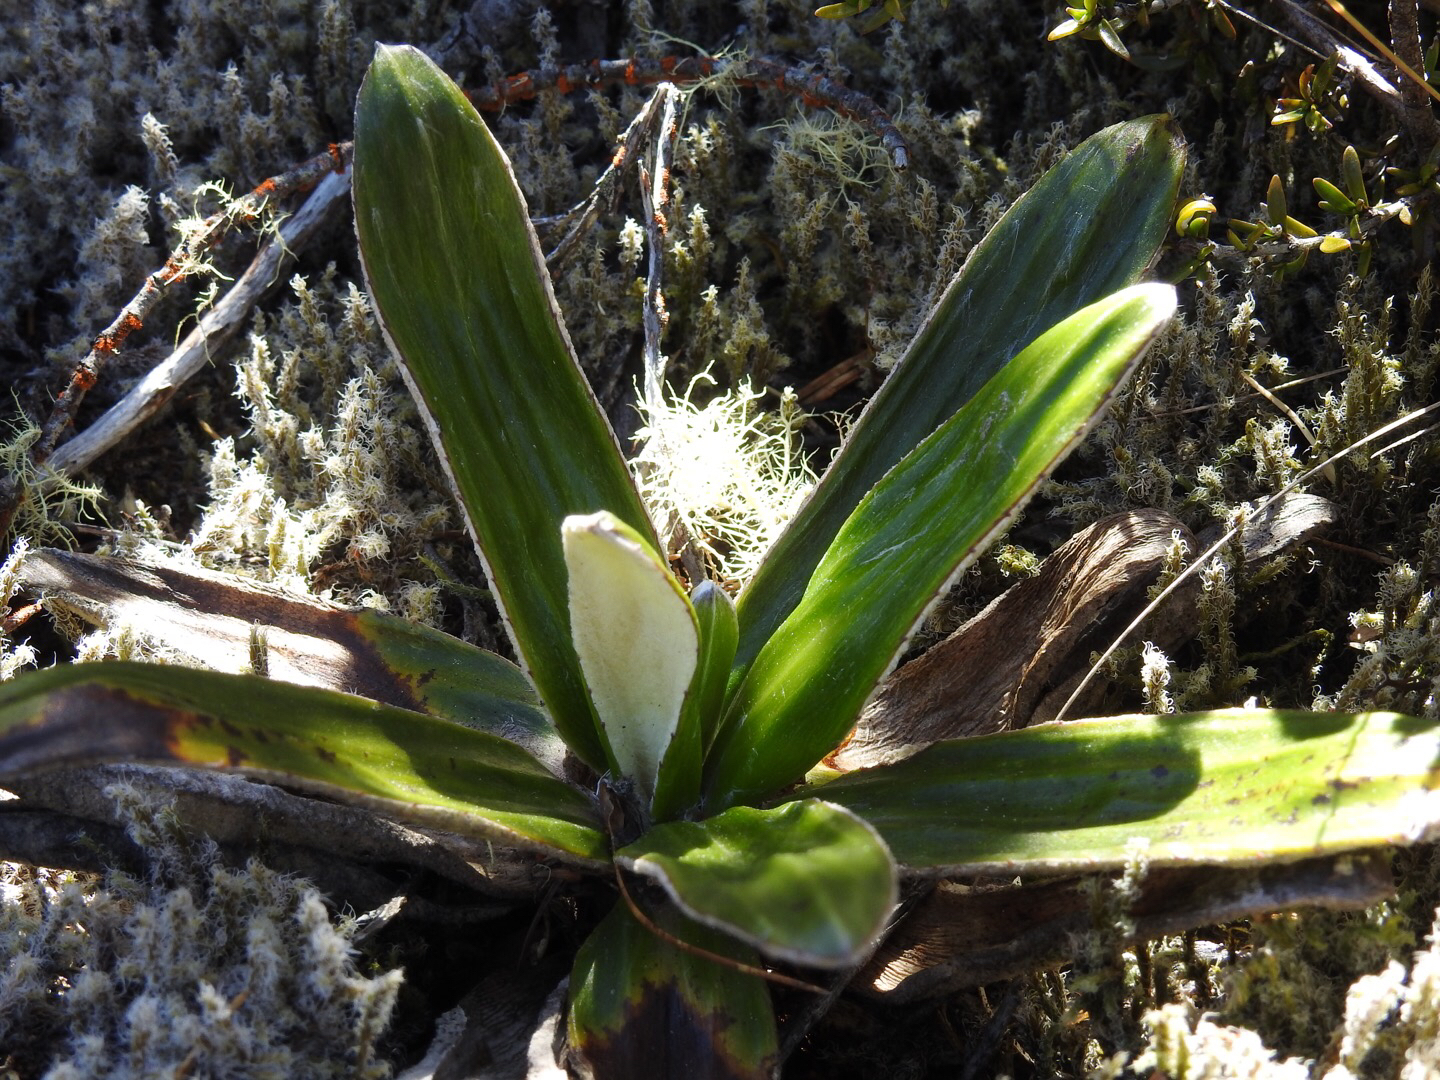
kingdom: Plantae
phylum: Tracheophyta
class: Magnoliopsida
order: Asterales
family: Asteraceae
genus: Celmisia
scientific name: Celmisia spectabilis
